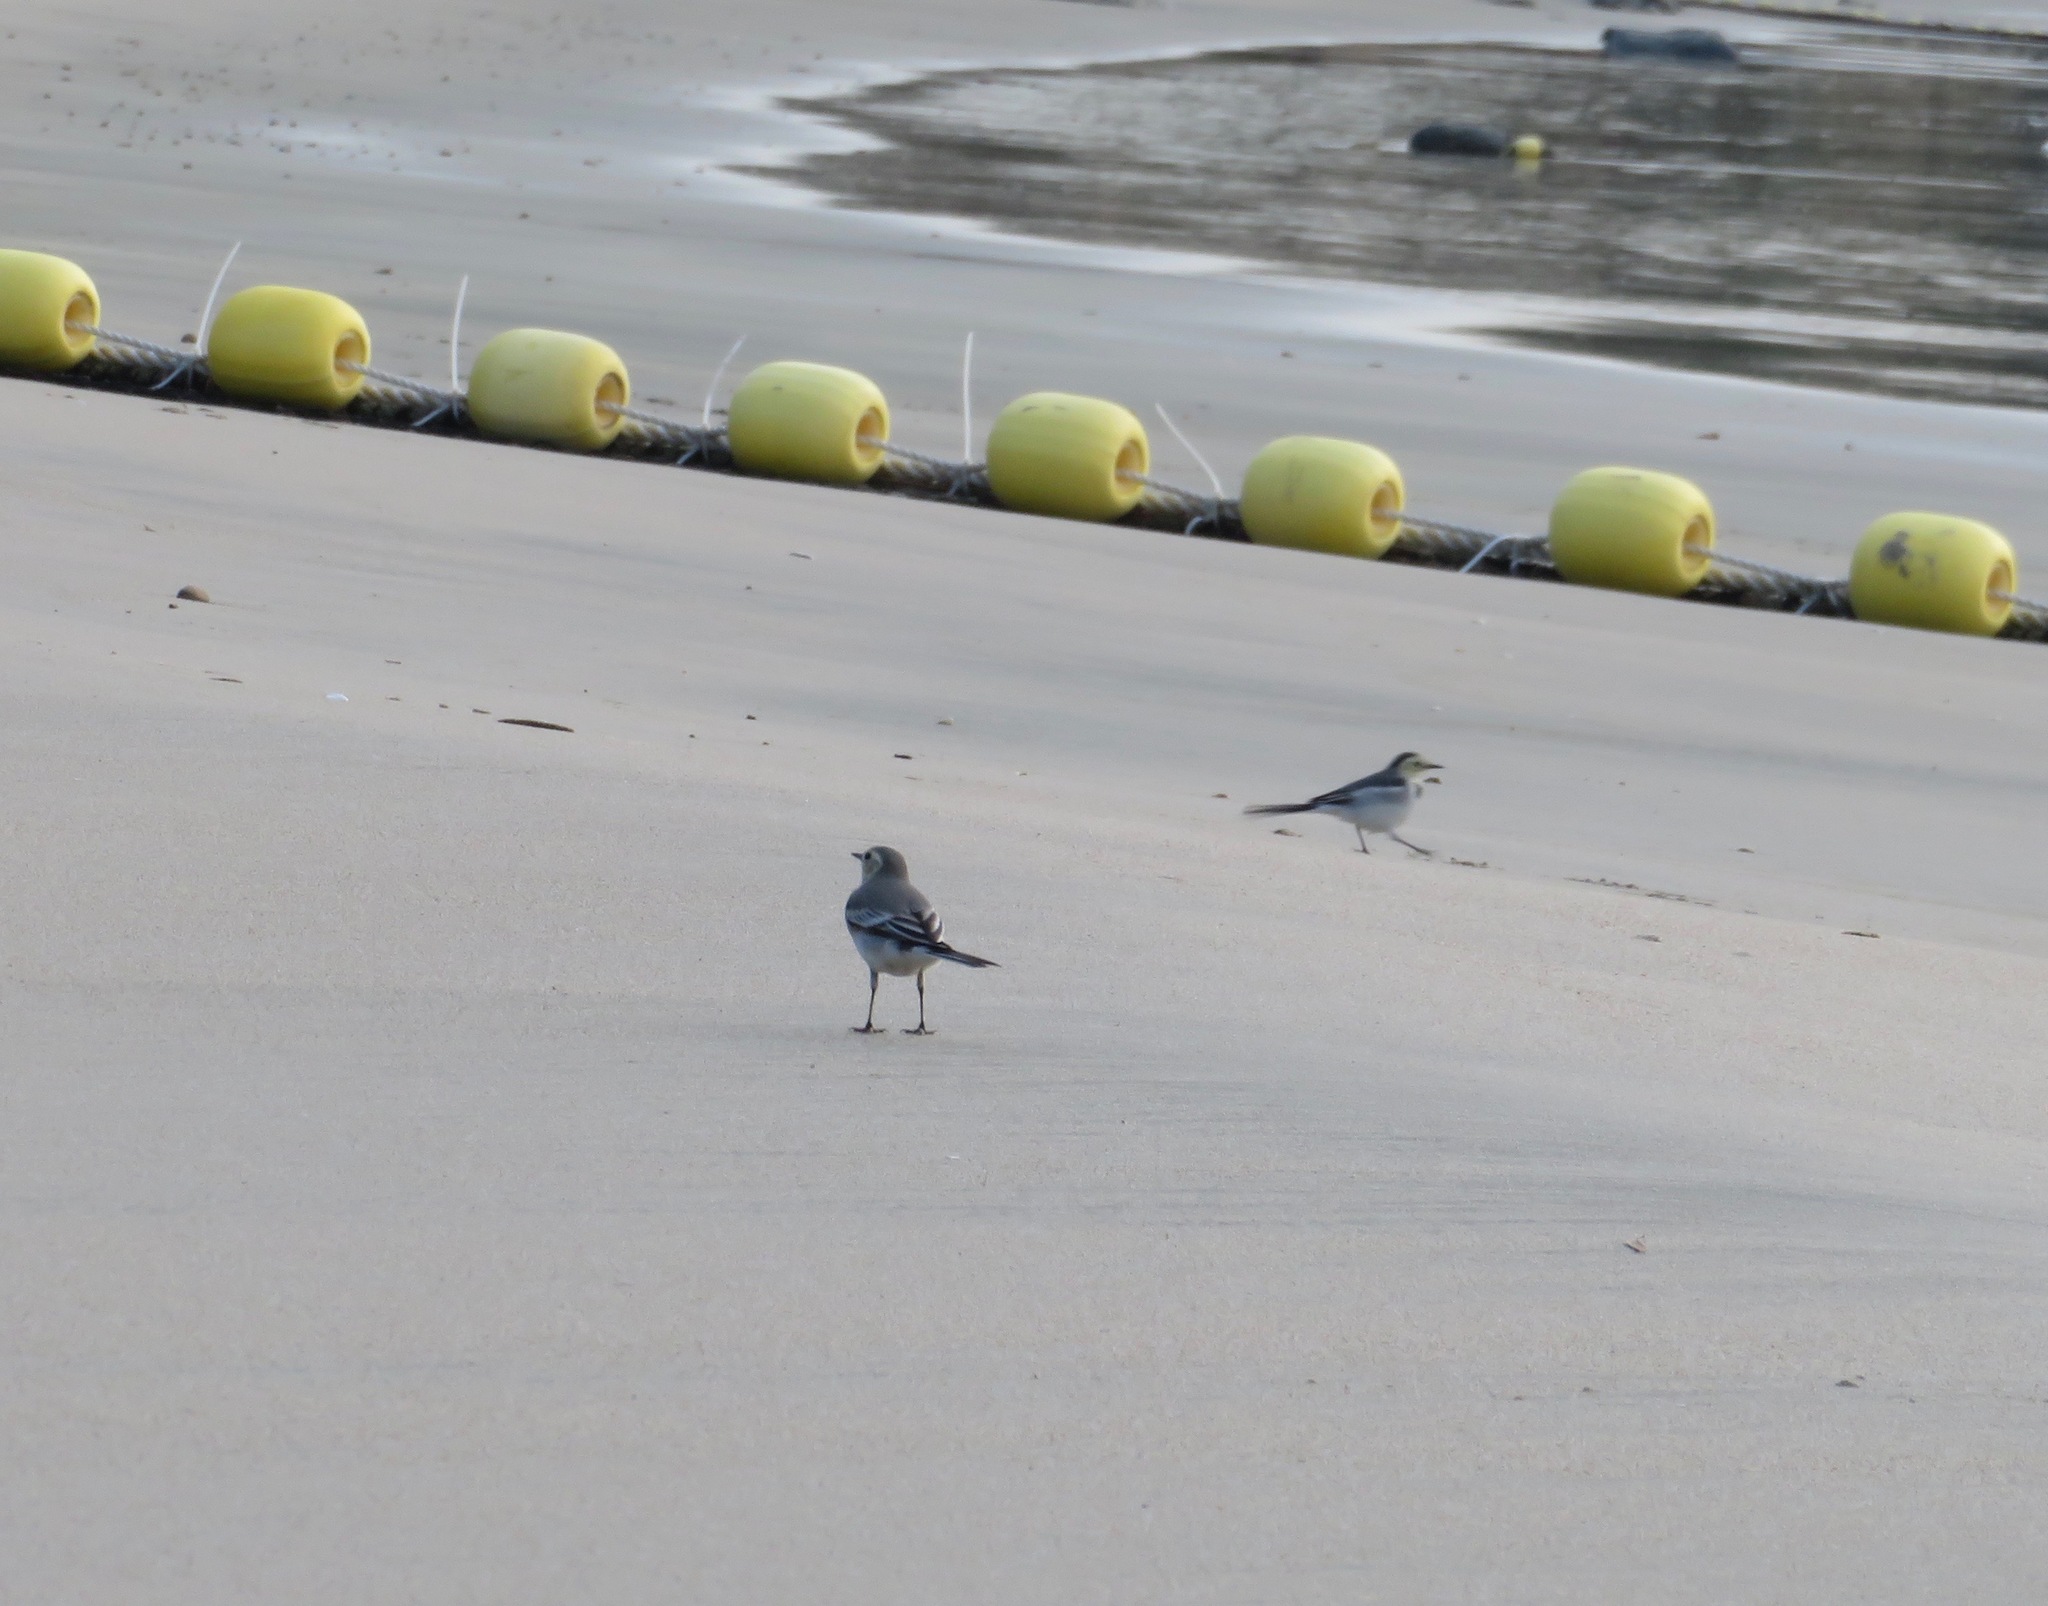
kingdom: Animalia
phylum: Chordata
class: Aves
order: Passeriformes
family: Motacillidae
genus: Motacilla
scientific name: Motacilla alba
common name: White wagtail
